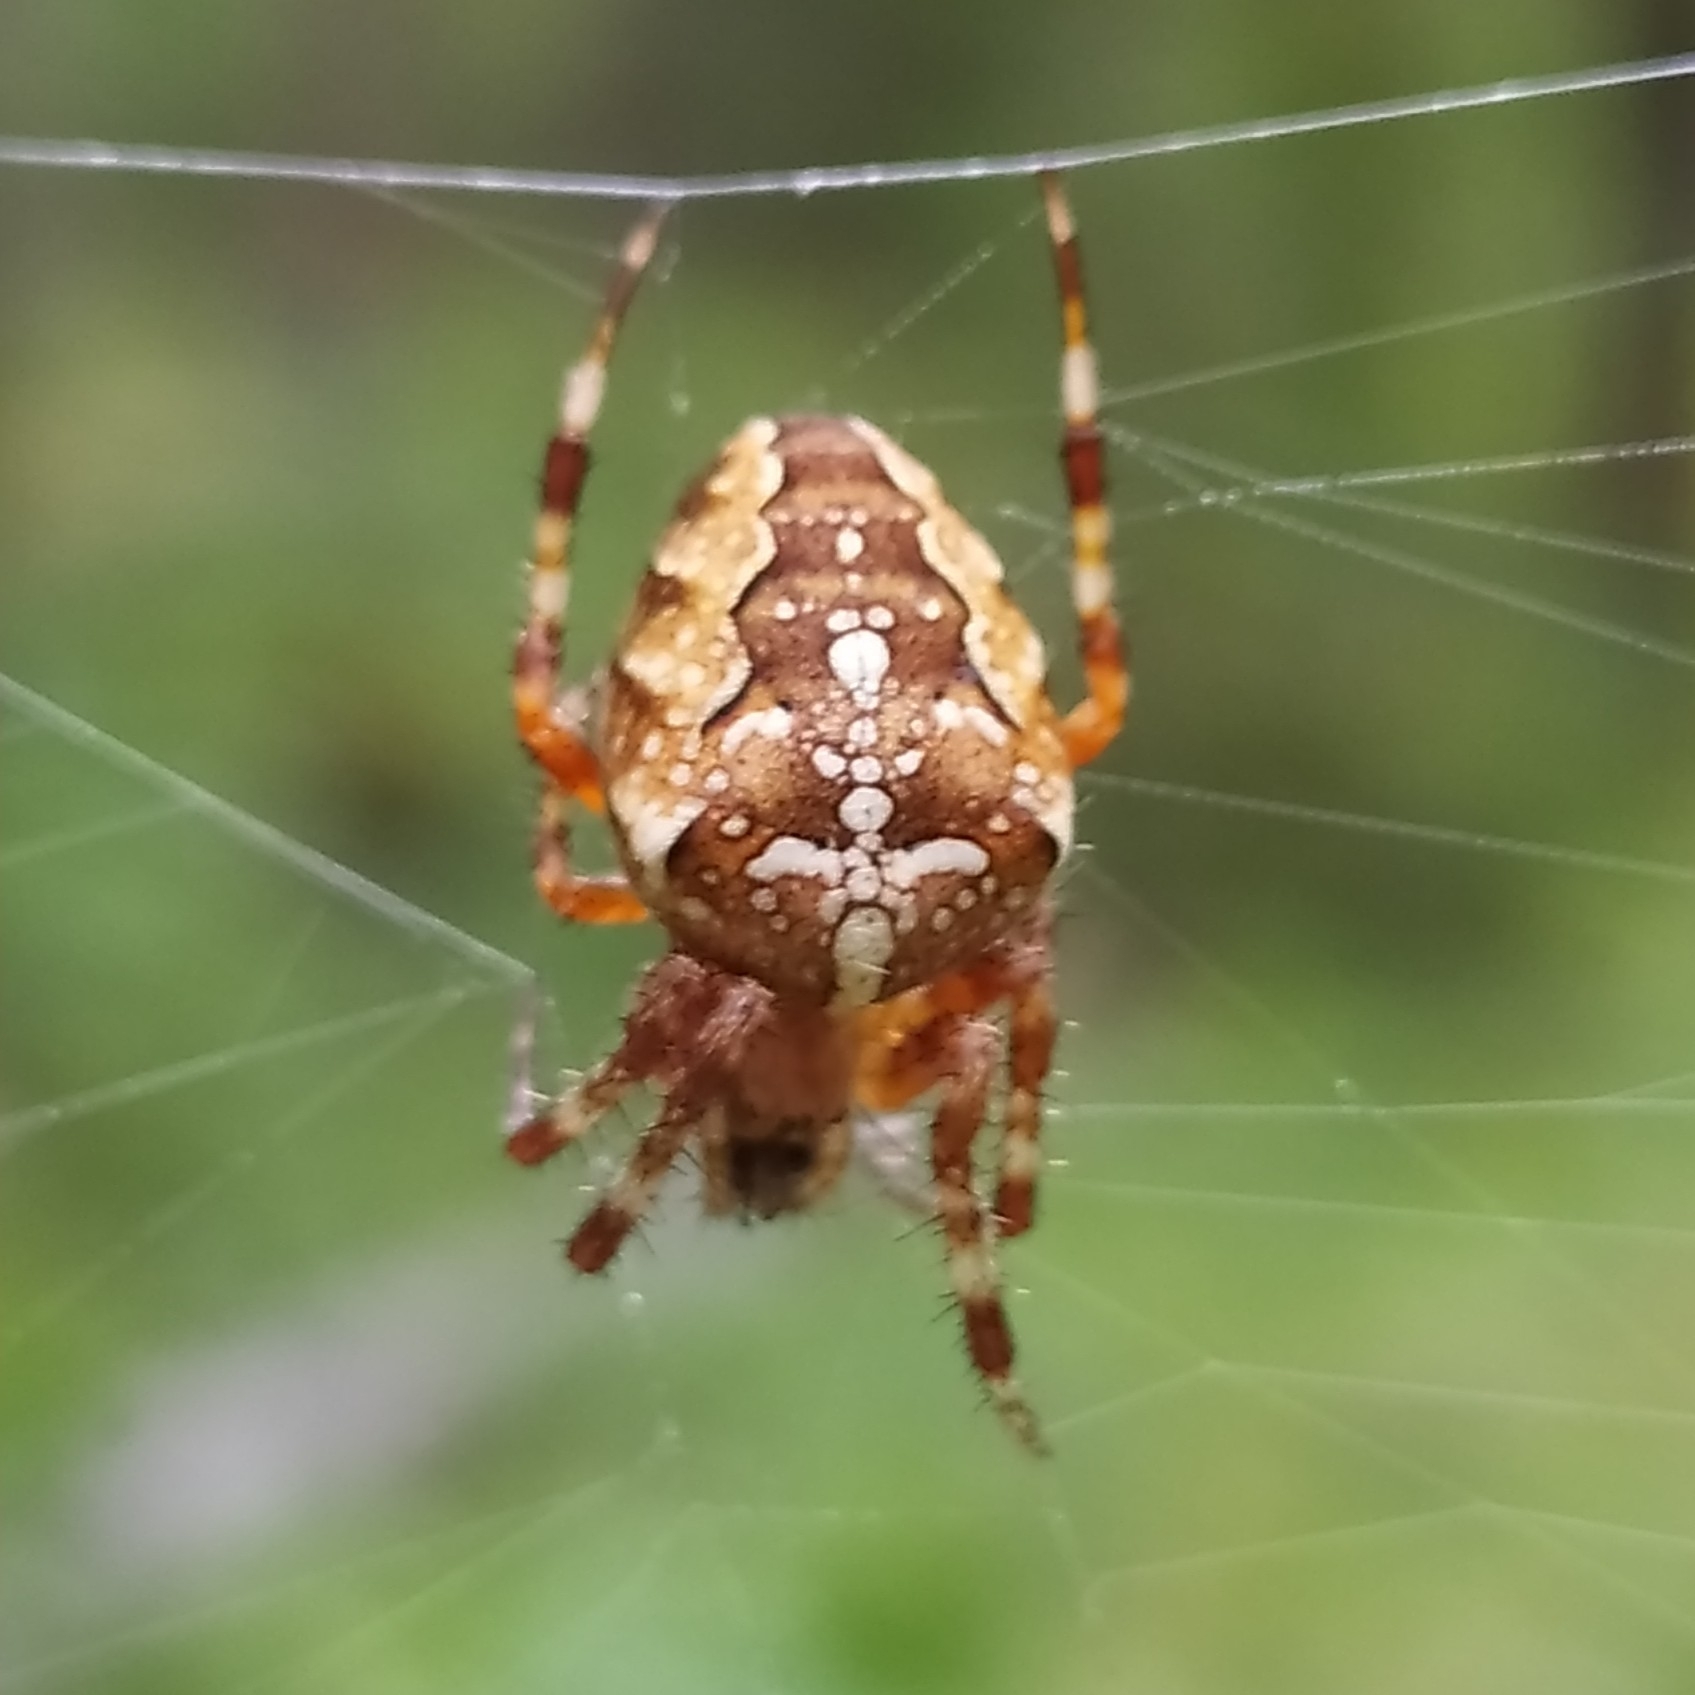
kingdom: Animalia
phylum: Arthropoda
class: Arachnida
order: Araneae
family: Araneidae
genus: Araneus
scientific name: Araneus diadematus
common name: Cross orbweaver
